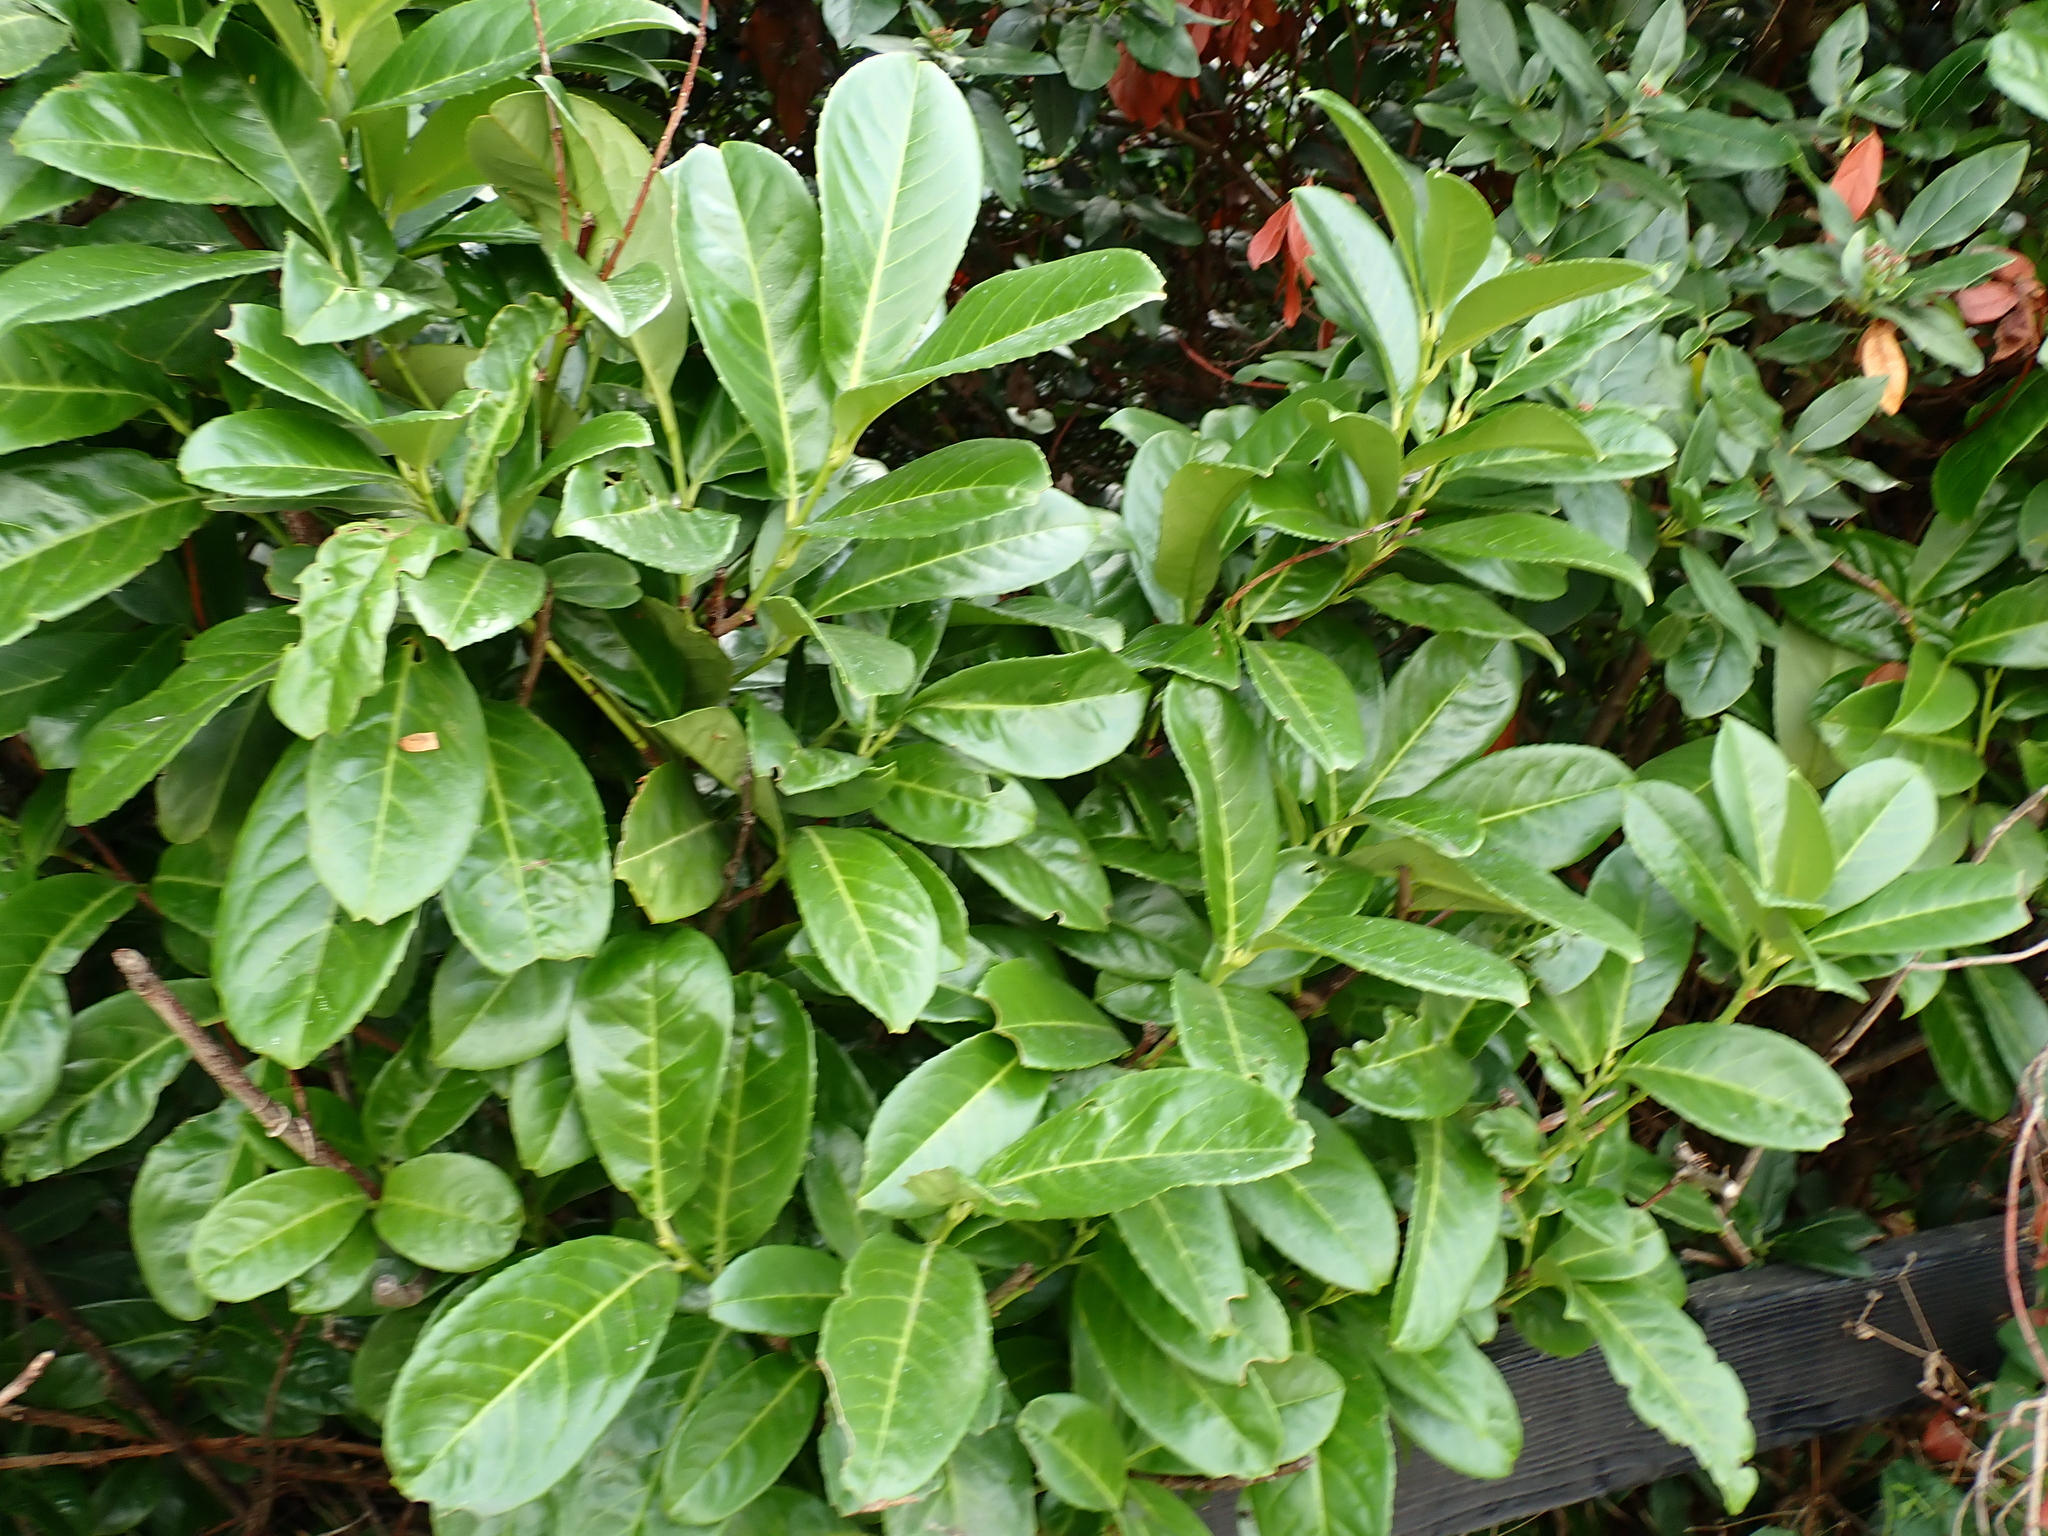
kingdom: Plantae
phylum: Tracheophyta
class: Magnoliopsida
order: Rosales
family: Rosaceae
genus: Prunus
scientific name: Prunus laurocerasus
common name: Cherry laurel
